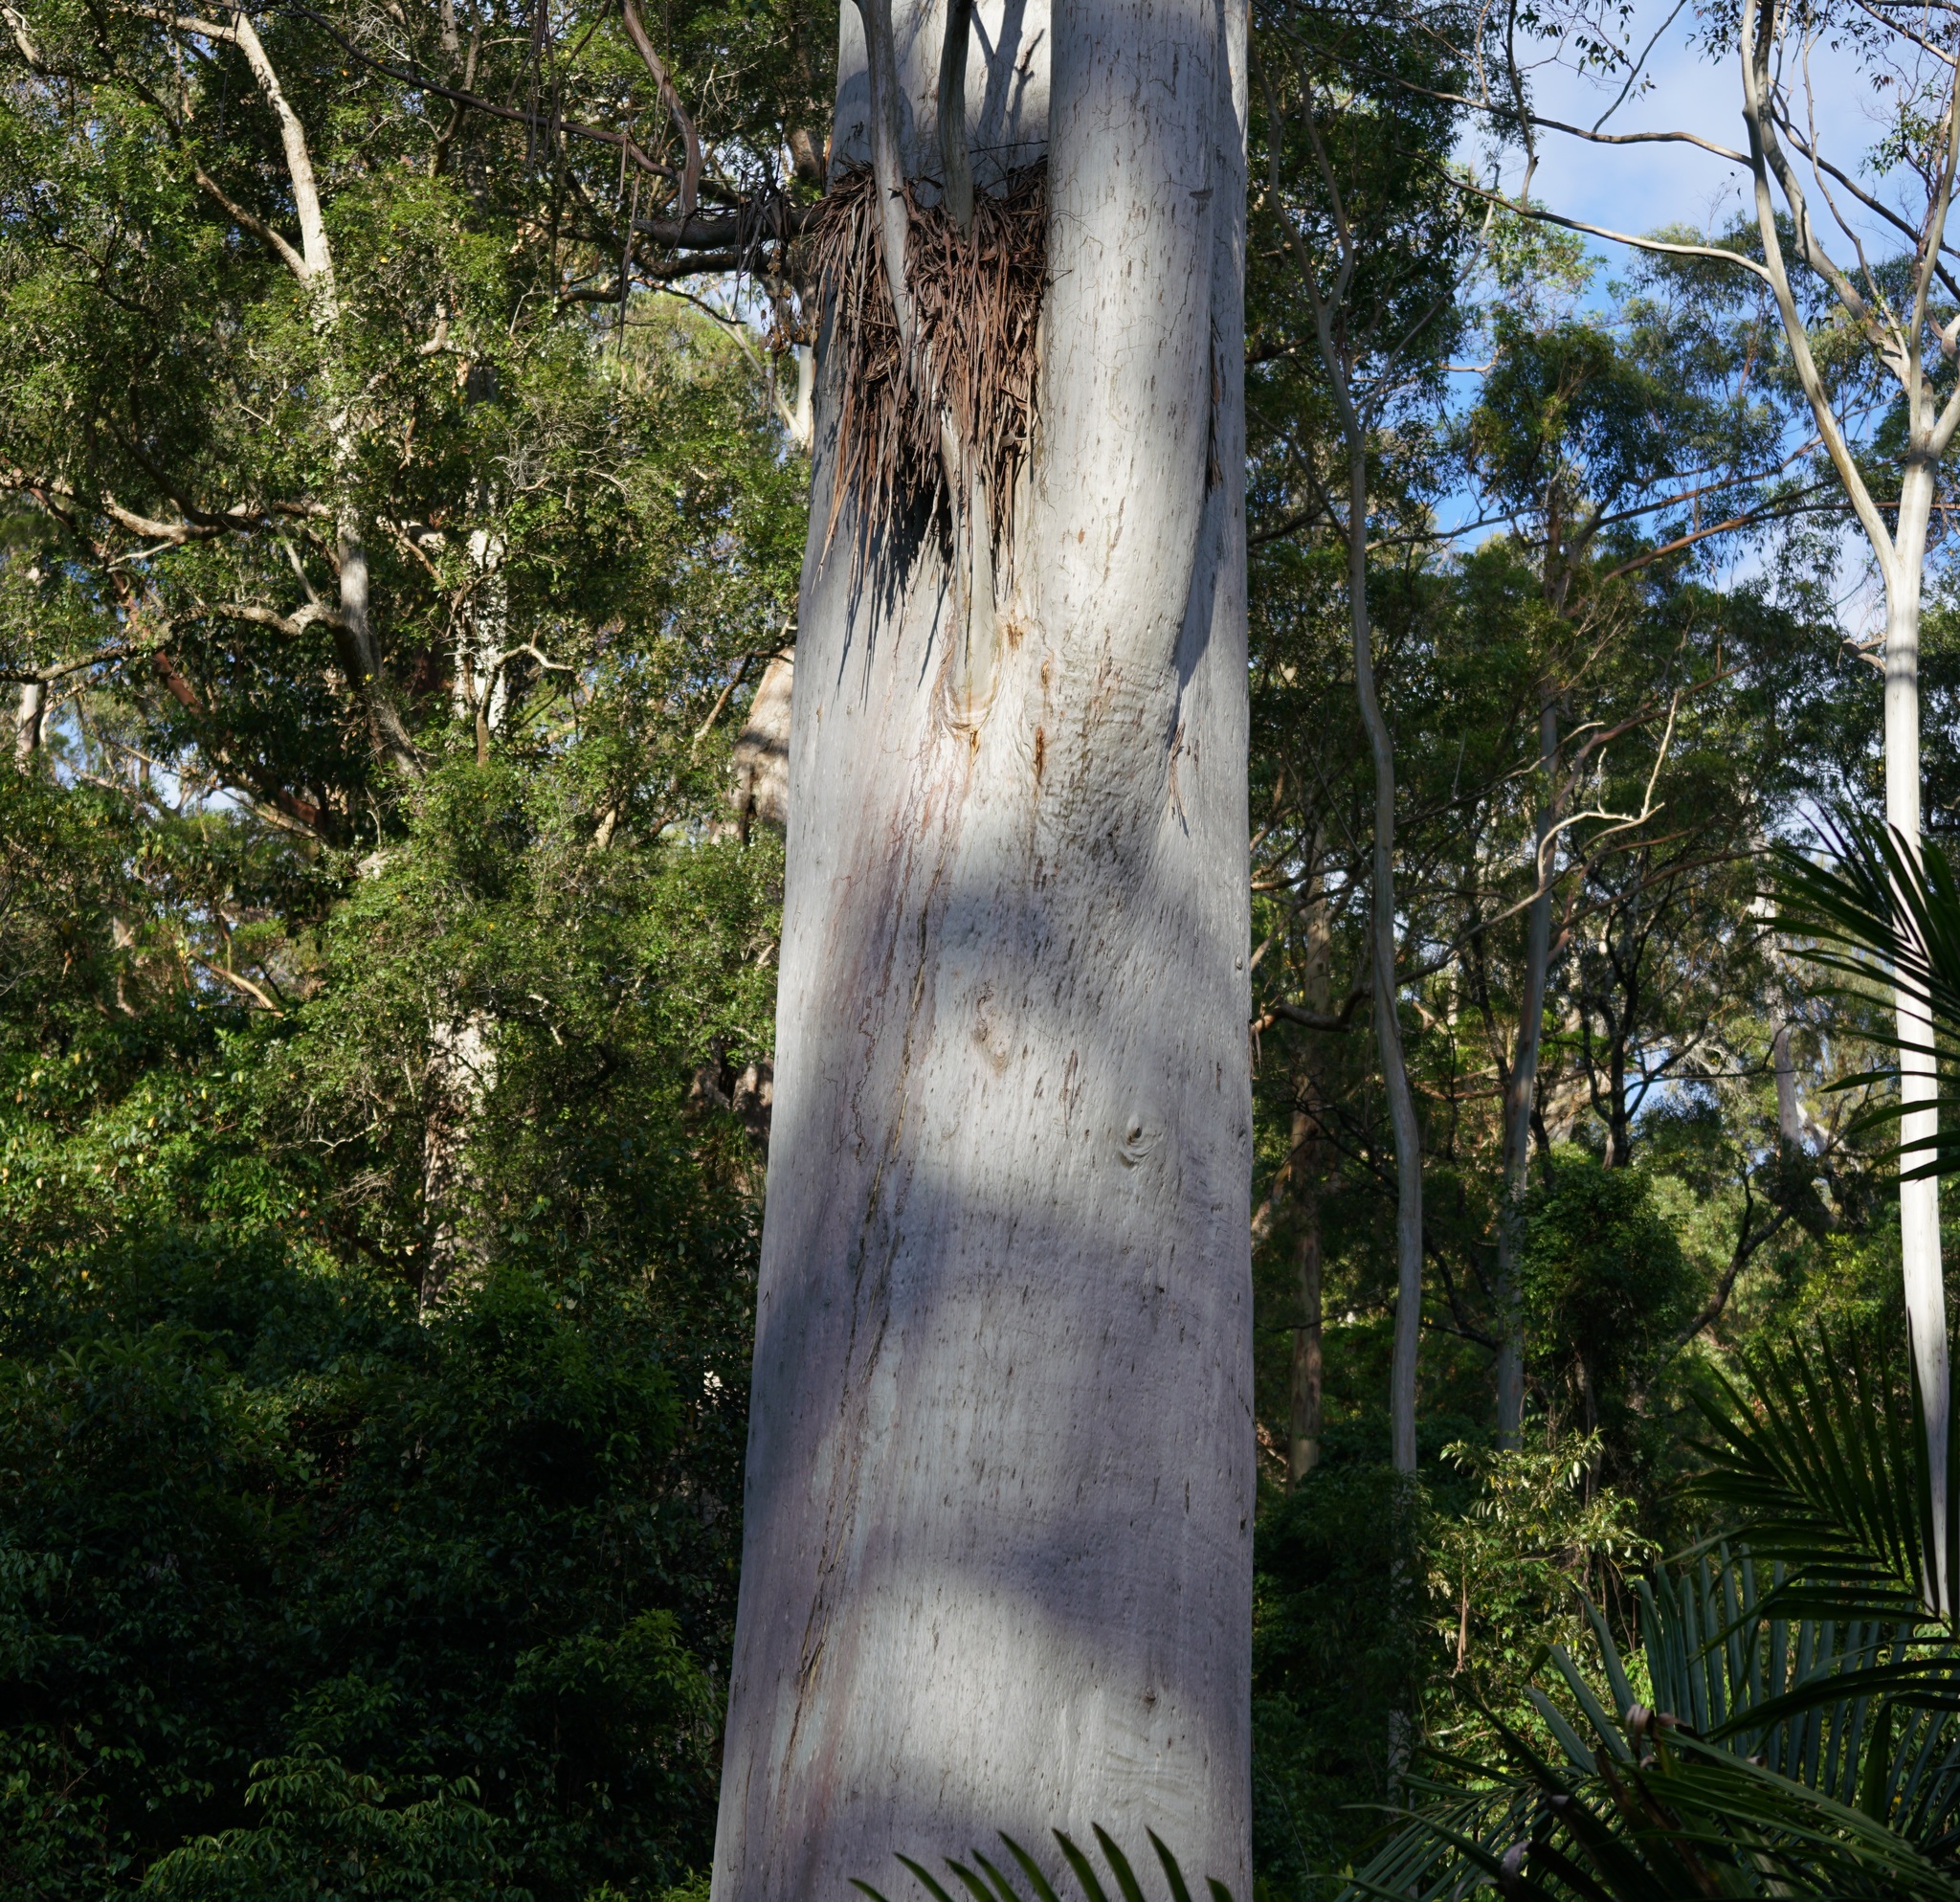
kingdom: Plantae
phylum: Tracheophyta
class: Magnoliopsida
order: Myrtales
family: Myrtaceae
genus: Eucalyptus
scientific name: Eucalyptus grandis
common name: Grand eucalyptus
